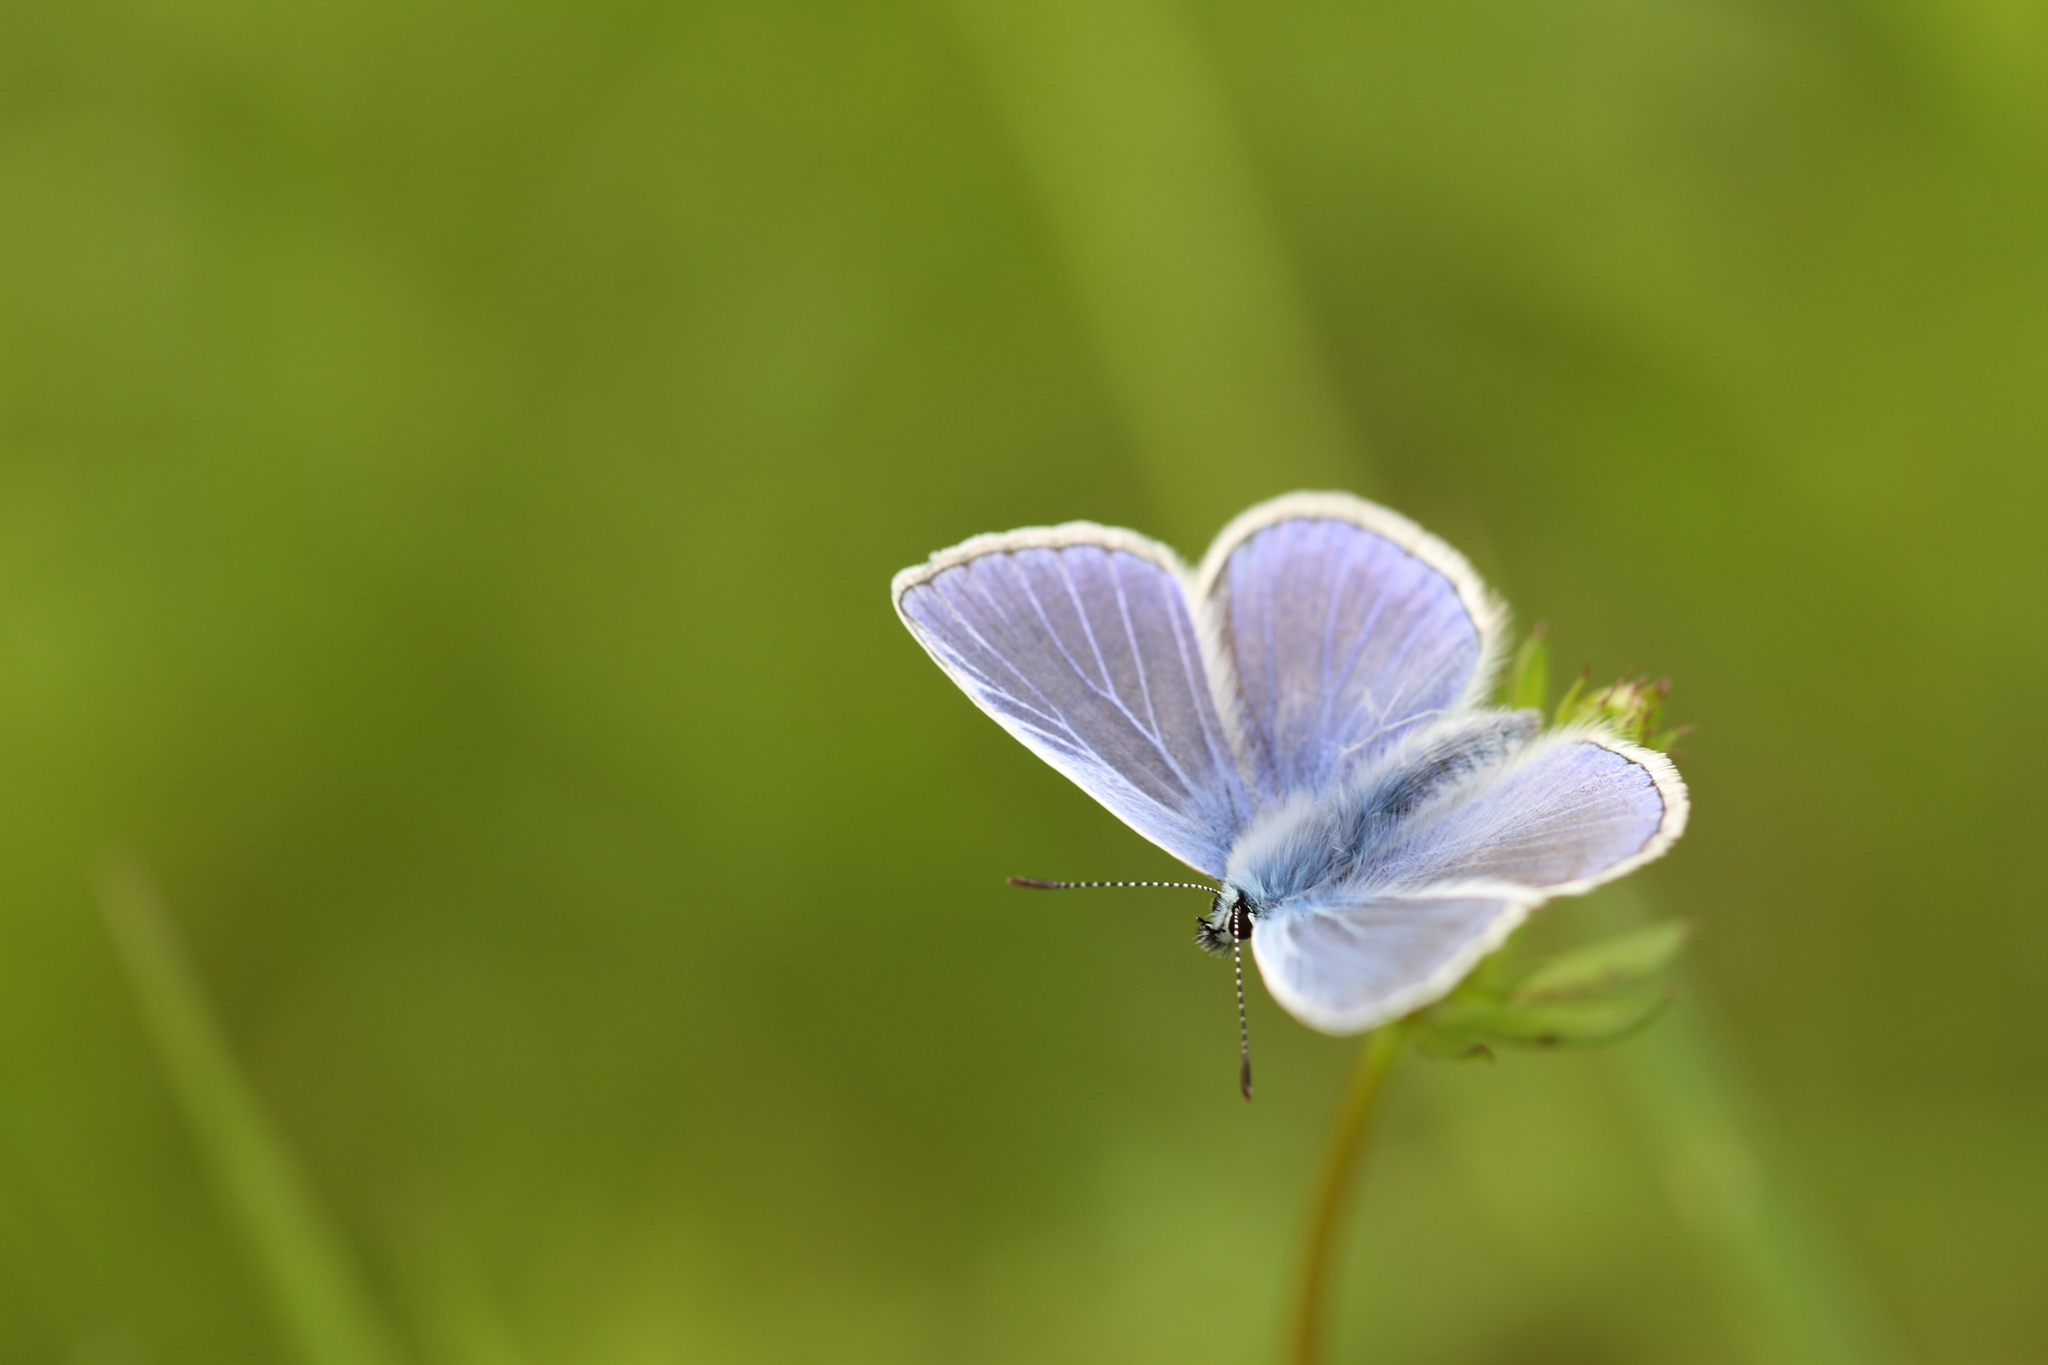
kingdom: Animalia
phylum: Arthropoda
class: Insecta
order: Lepidoptera
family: Lycaenidae
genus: Polyommatus
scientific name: Polyommatus icarus
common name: Common blue
